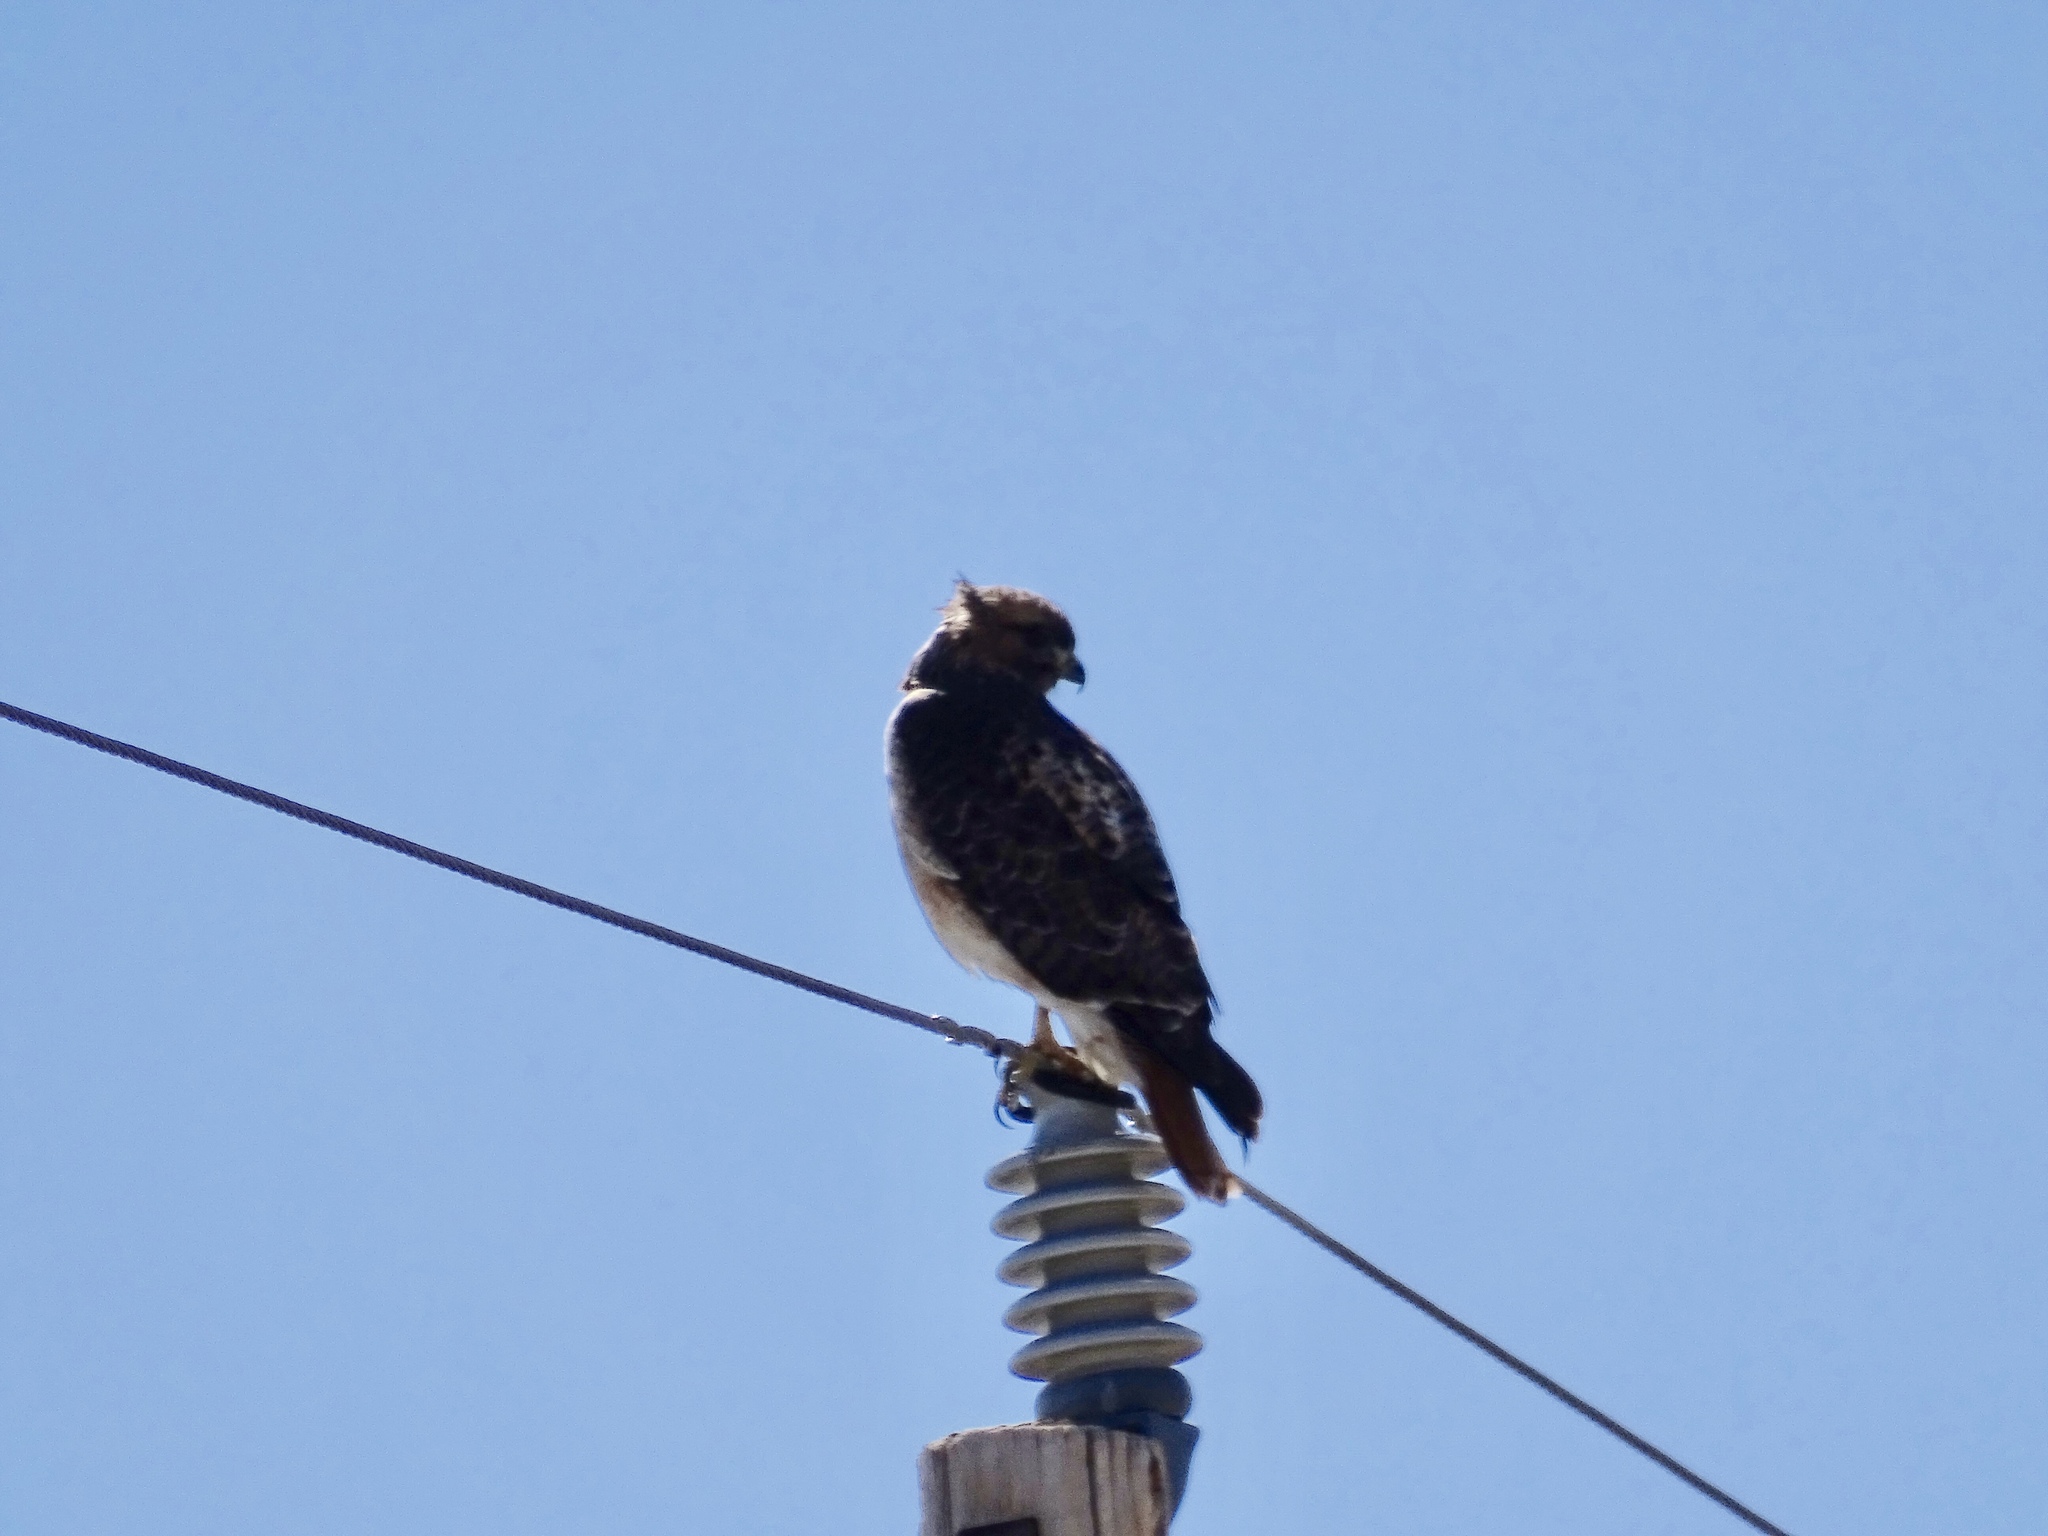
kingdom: Animalia
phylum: Chordata
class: Aves
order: Accipitriformes
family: Accipitridae
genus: Buteo
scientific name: Buteo jamaicensis
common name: Red-tailed hawk
